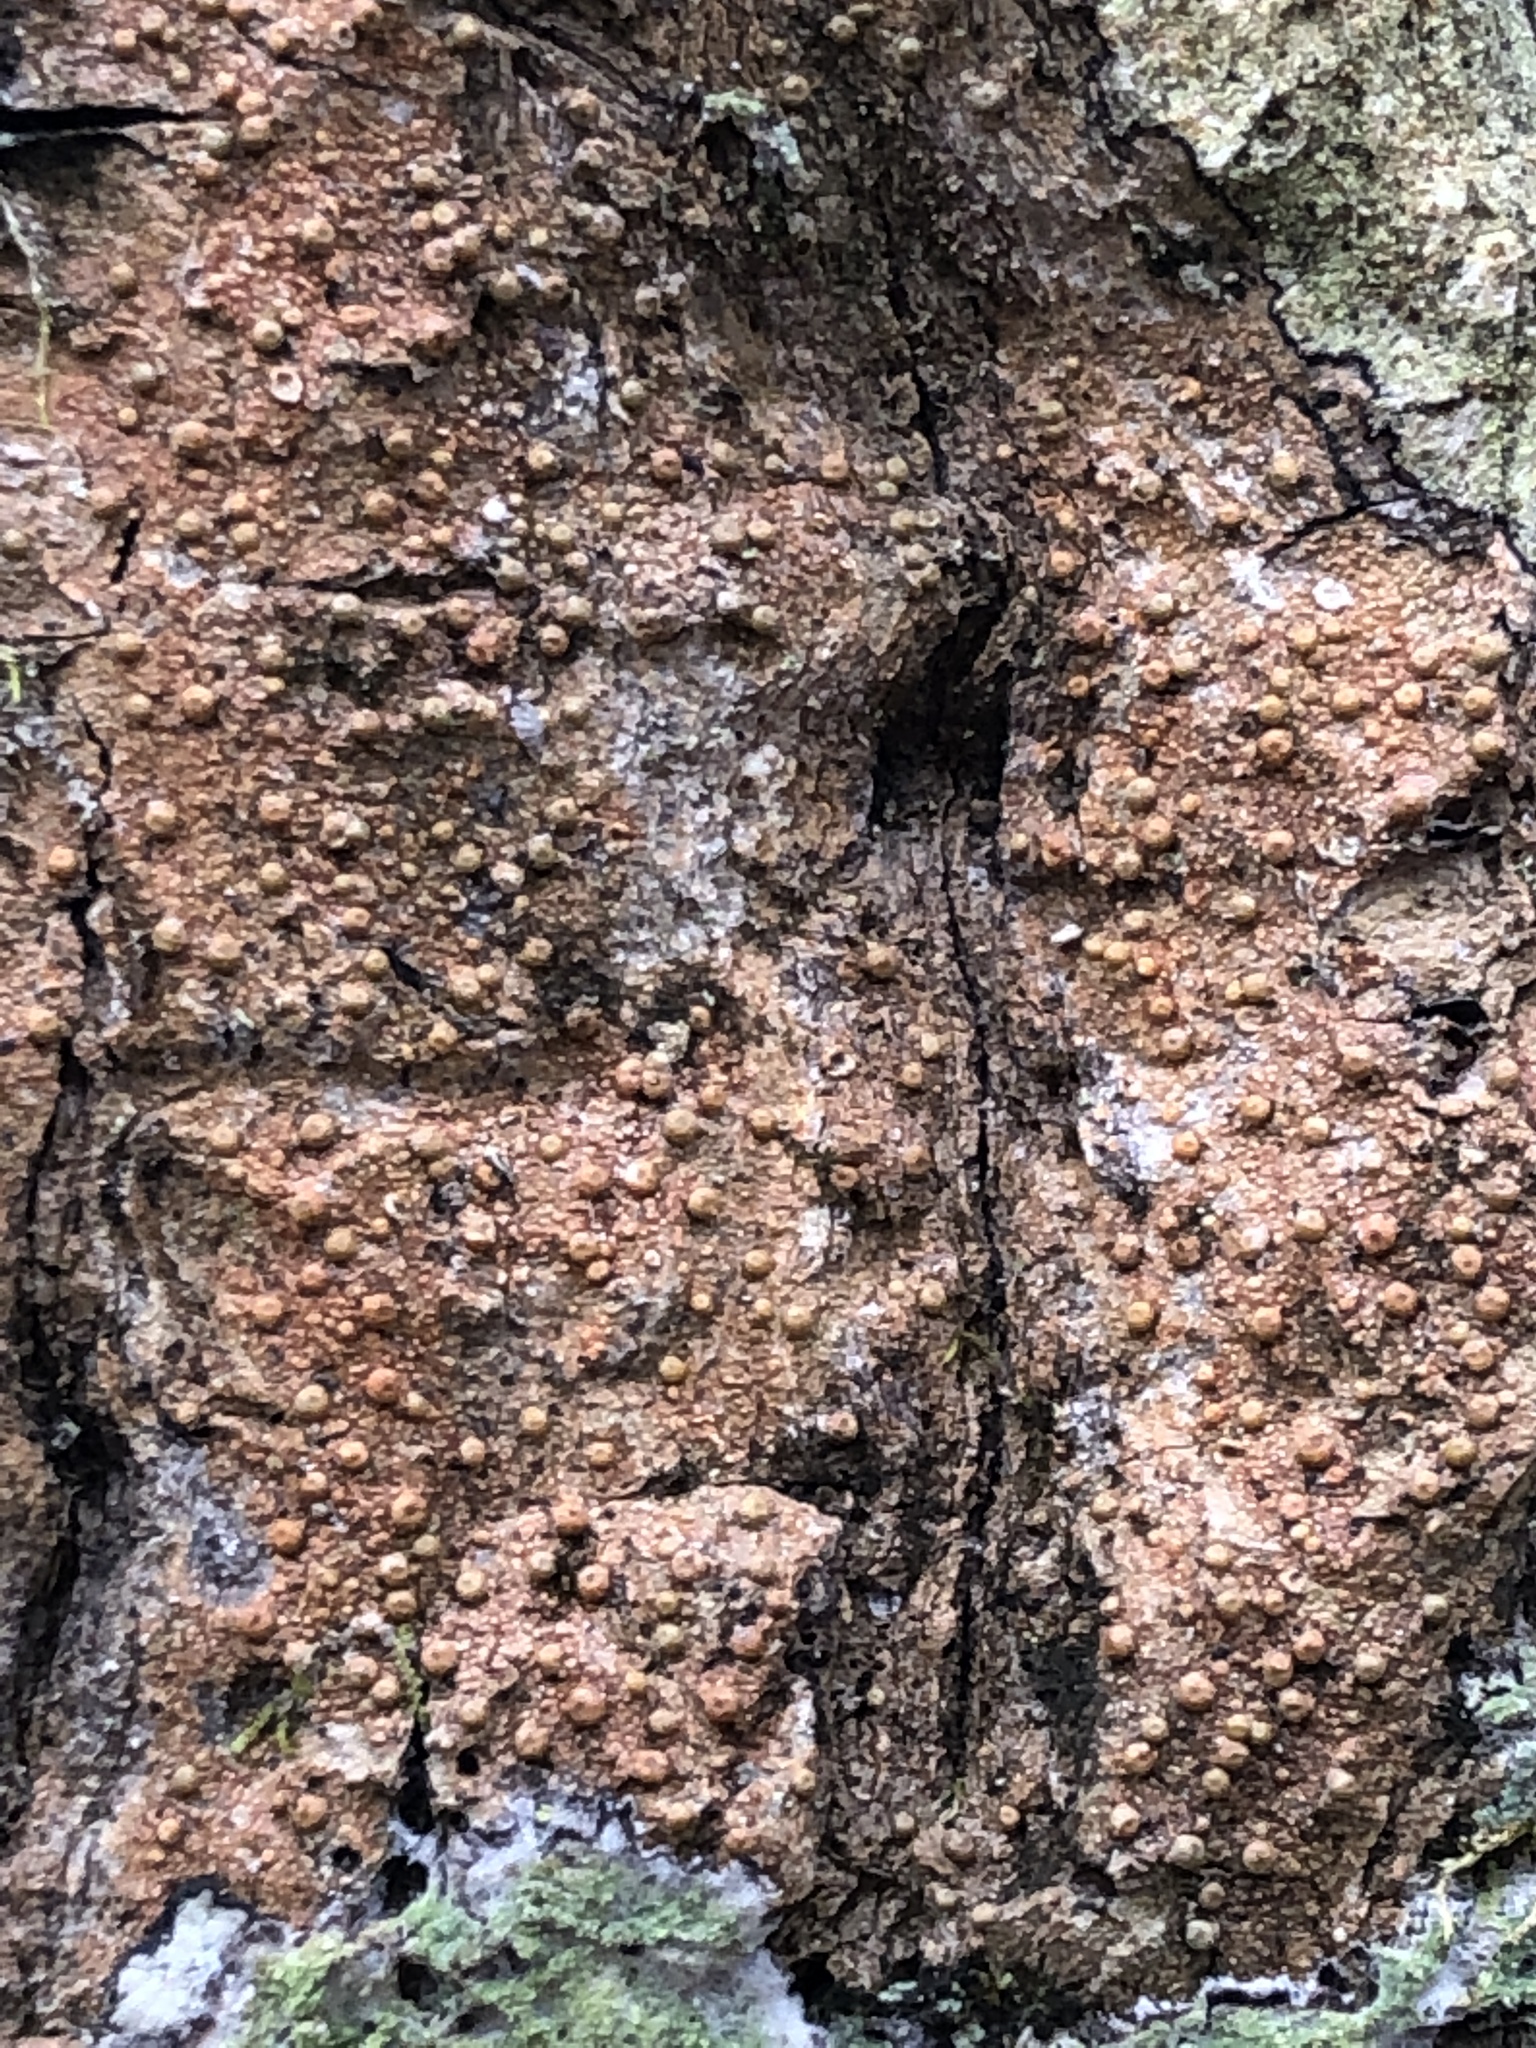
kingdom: Fungi
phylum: Ascomycota
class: Lecanoromycetes
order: Pertusariales
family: Pertusariaceae
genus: Porina
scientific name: Porina heterospora
